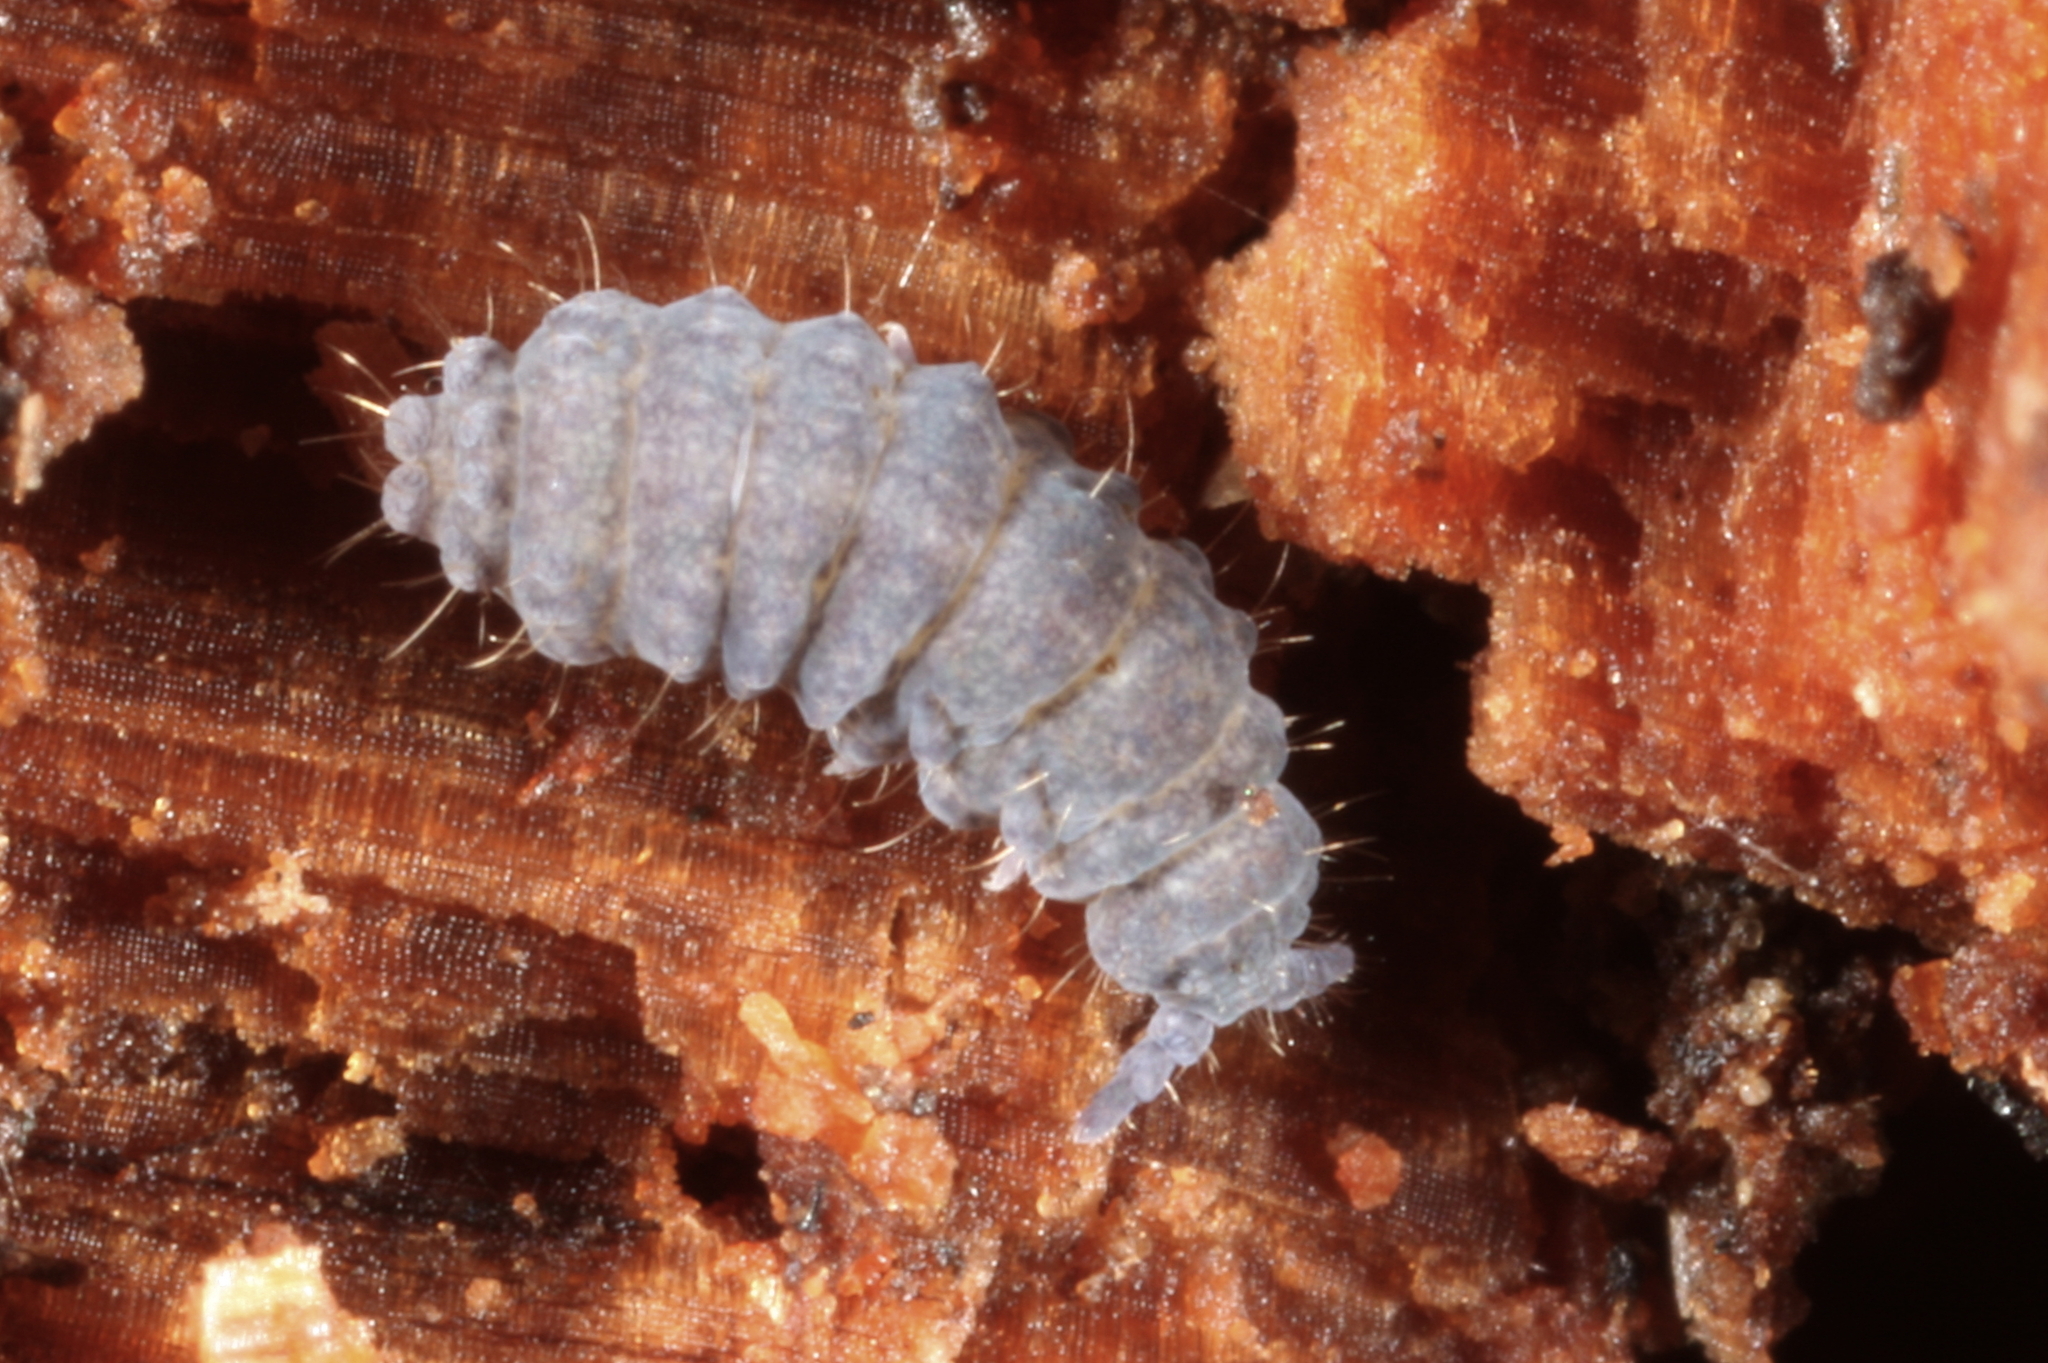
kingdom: Animalia
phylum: Arthropoda
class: Collembola
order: Poduromorpha
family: Neanuridae
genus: Neanura
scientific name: Neanura muscorum
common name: Springtail
